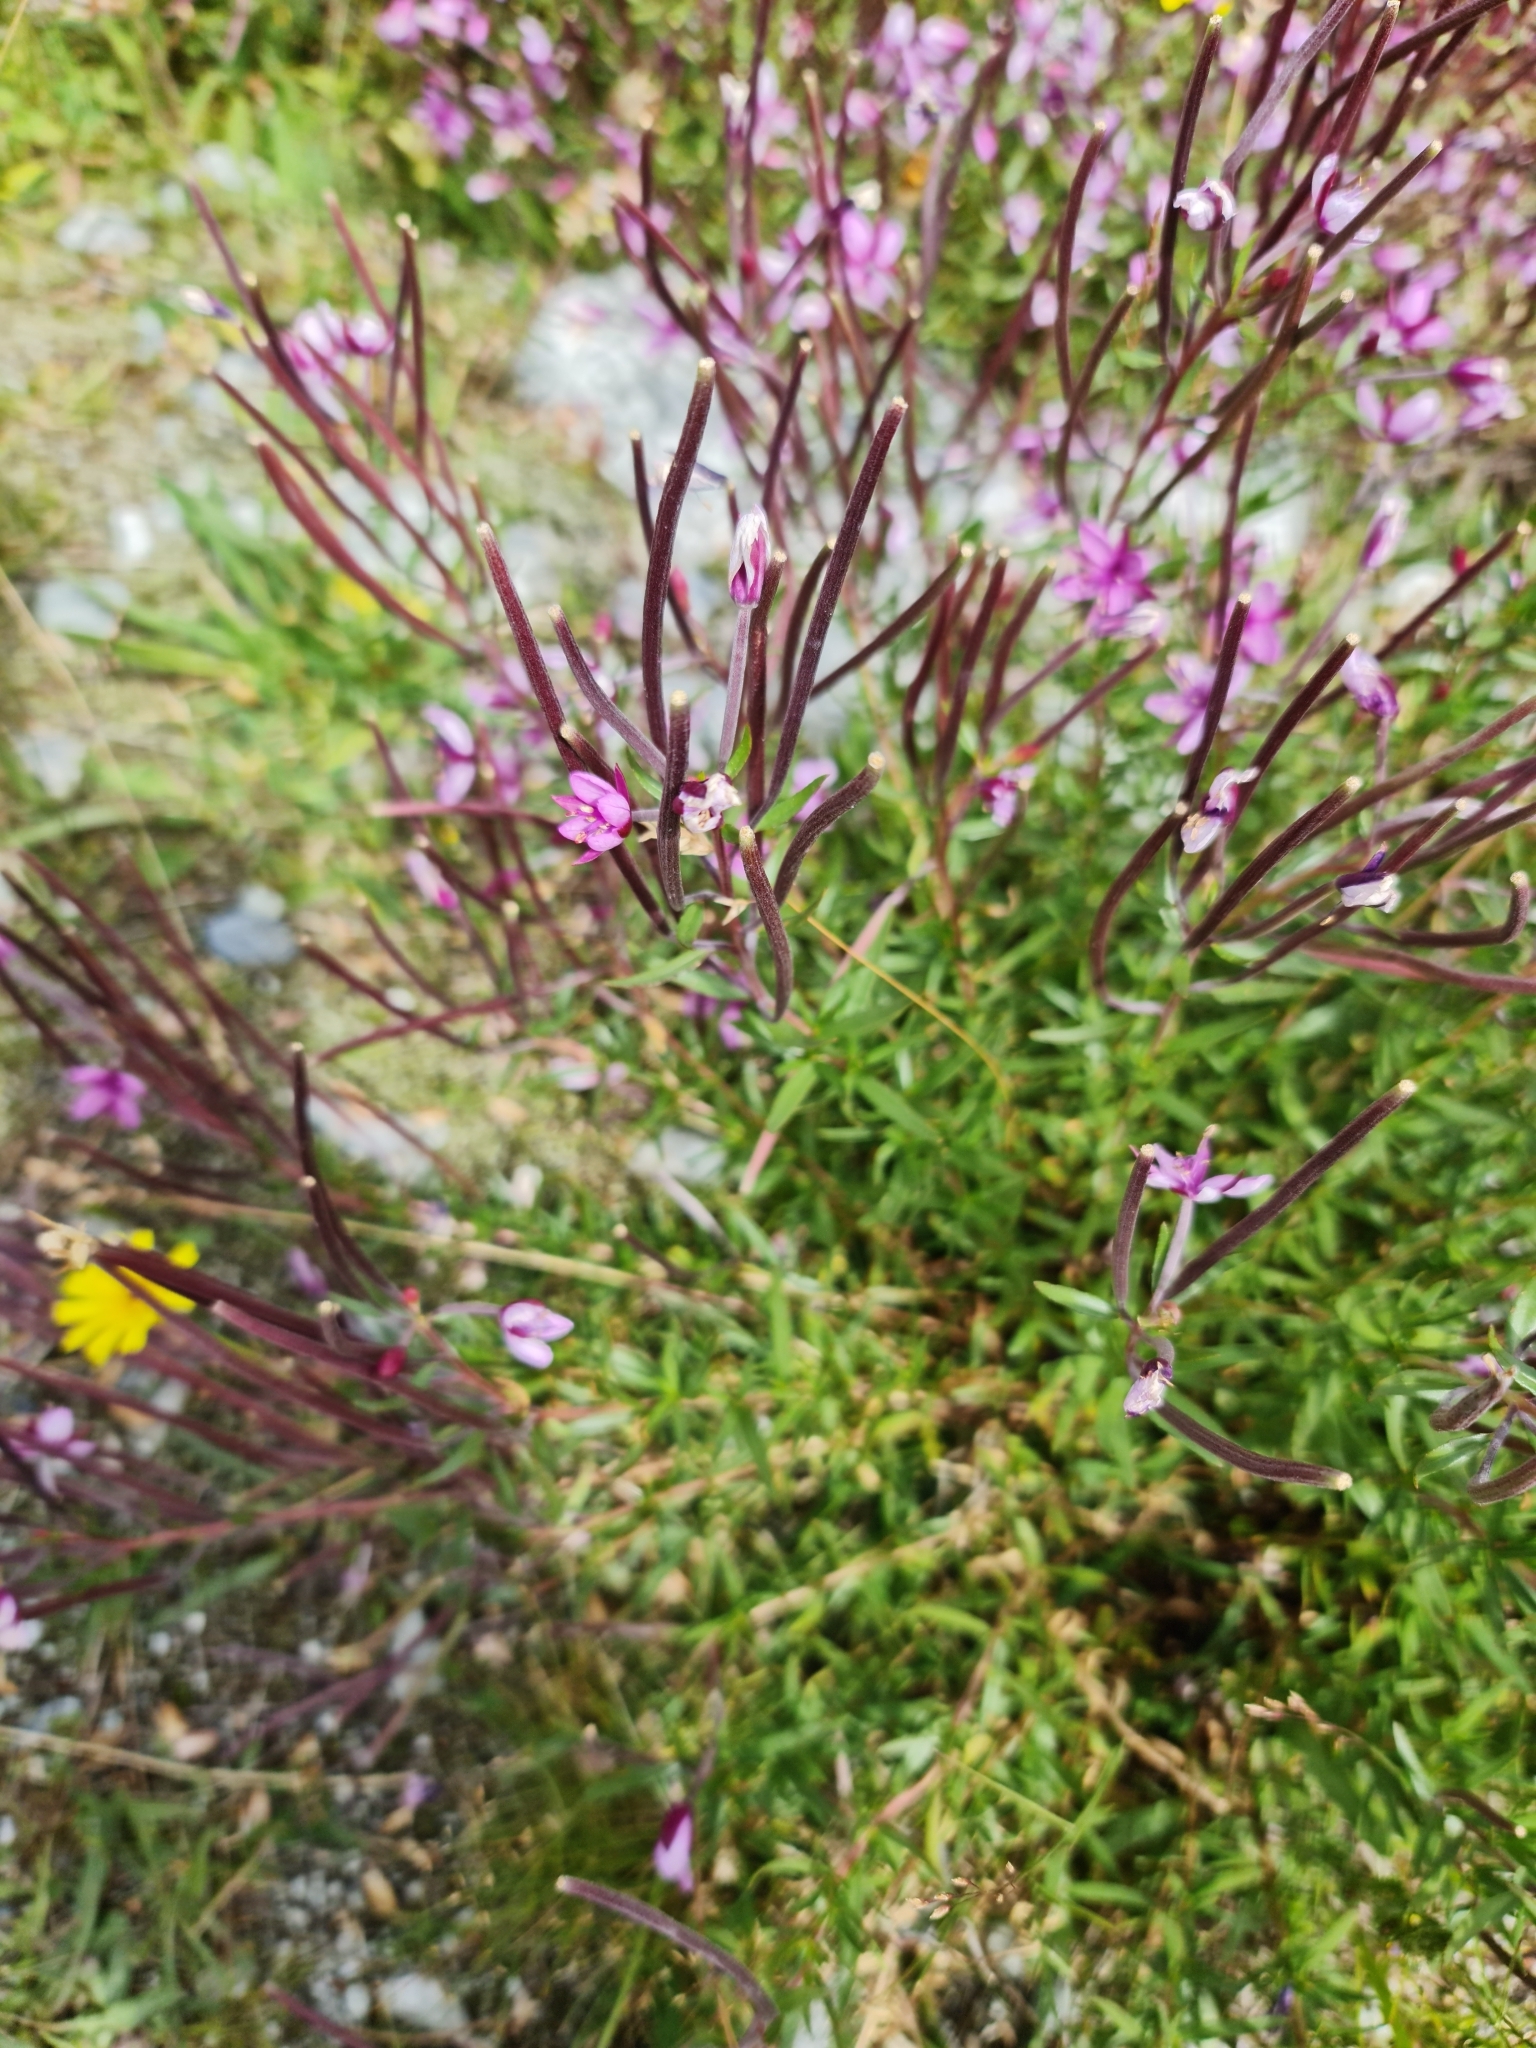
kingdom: Plantae
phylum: Tracheophyta
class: Magnoliopsida
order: Myrtales
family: Onagraceae
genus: Chamaenerion
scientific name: Chamaenerion fleischeri
